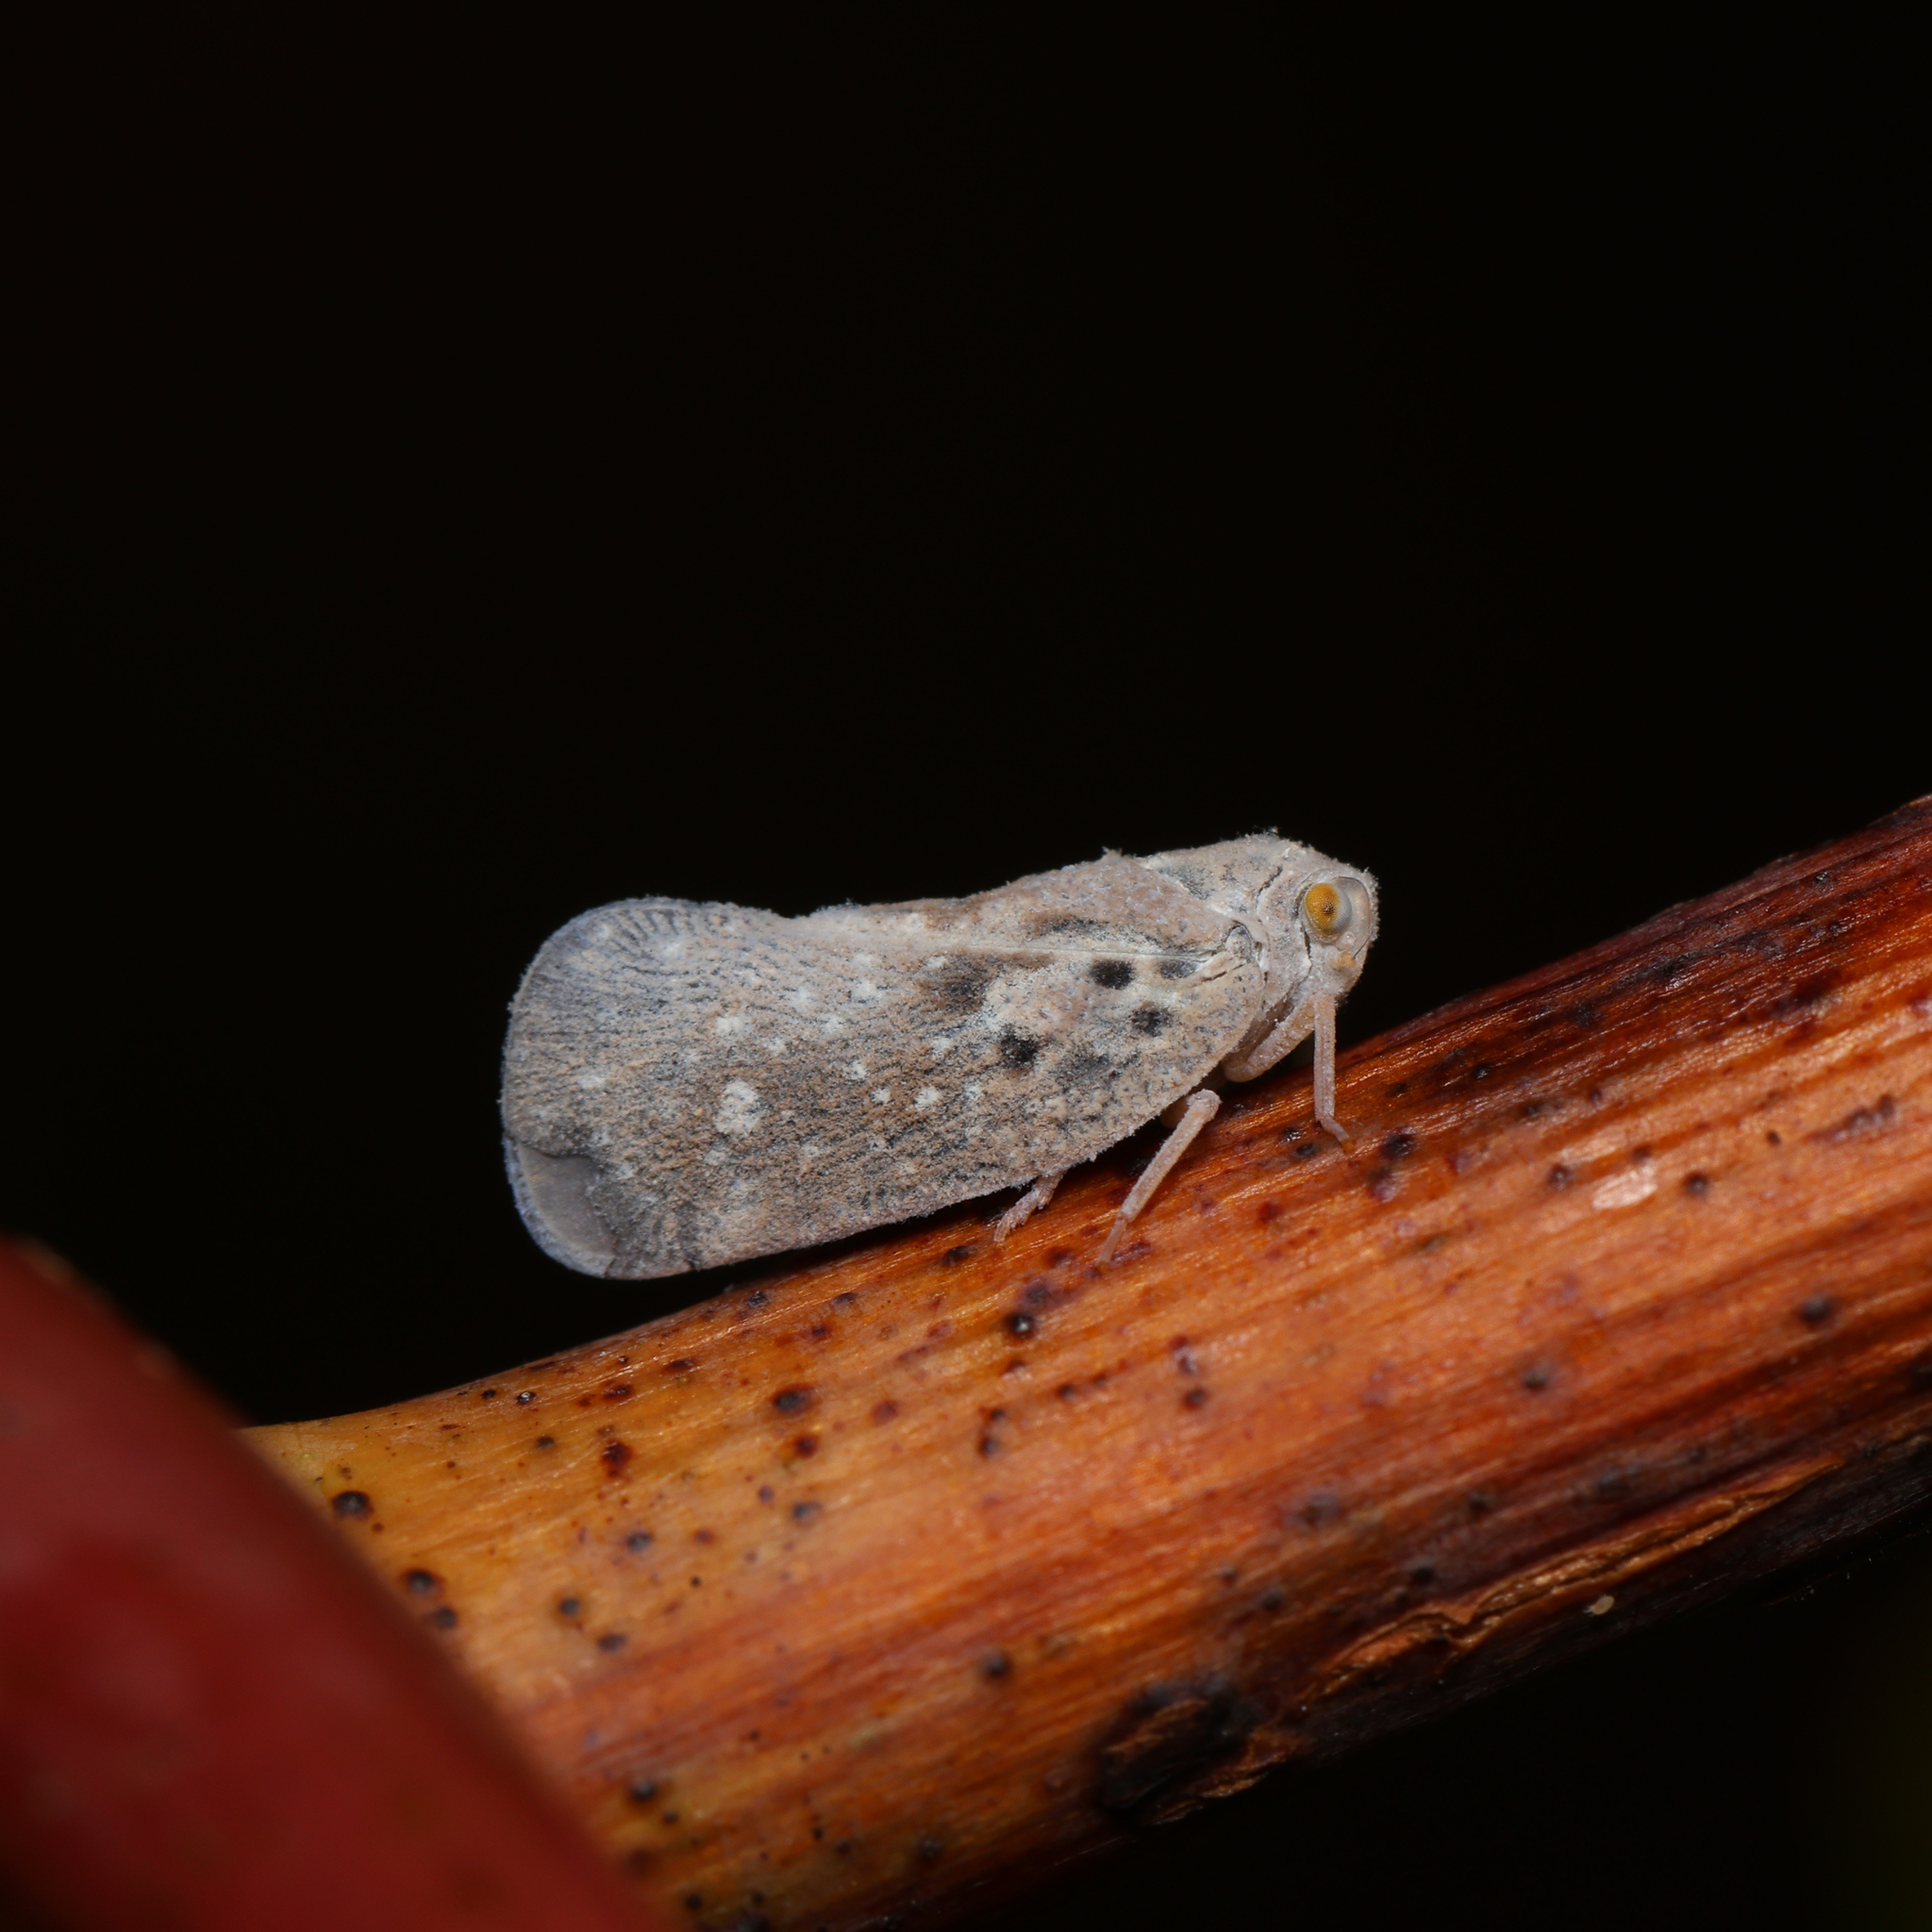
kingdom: Animalia
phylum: Arthropoda
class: Insecta
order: Hemiptera
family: Flatidae
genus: Metcalfa
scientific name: Metcalfa pruinosa
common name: Citrus flatid planthopper
